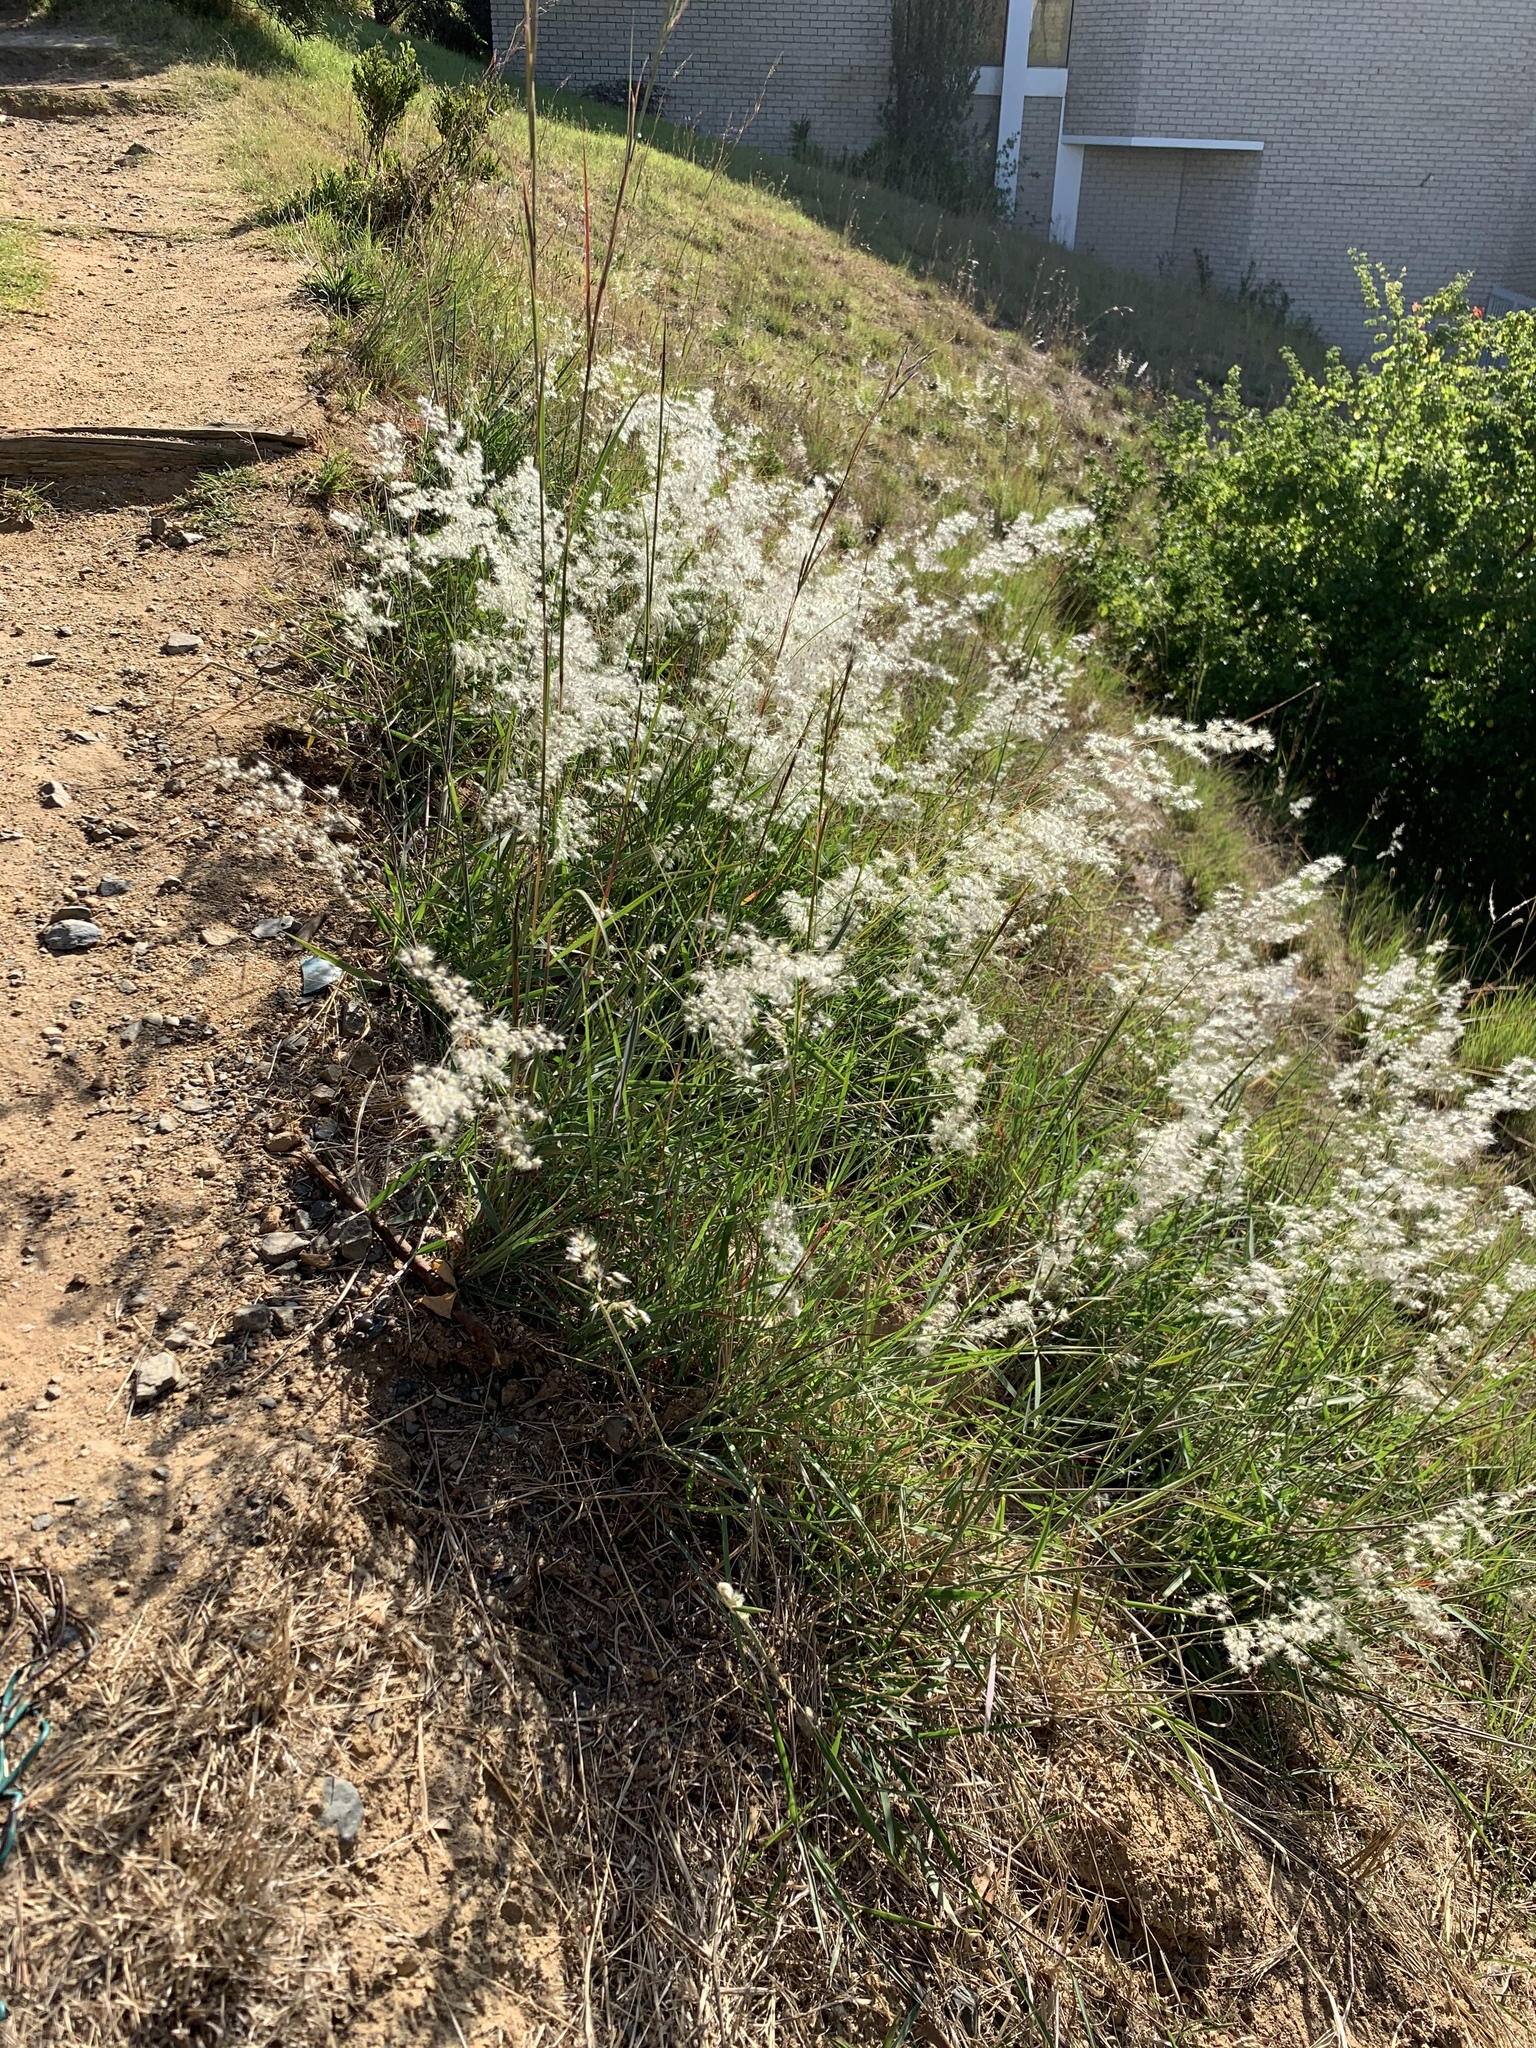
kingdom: Plantae
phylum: Tracheophyta
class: Liliopsida
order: Poales
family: Poaceae
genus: Melinis
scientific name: Melinis repens
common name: Rose natal grass
